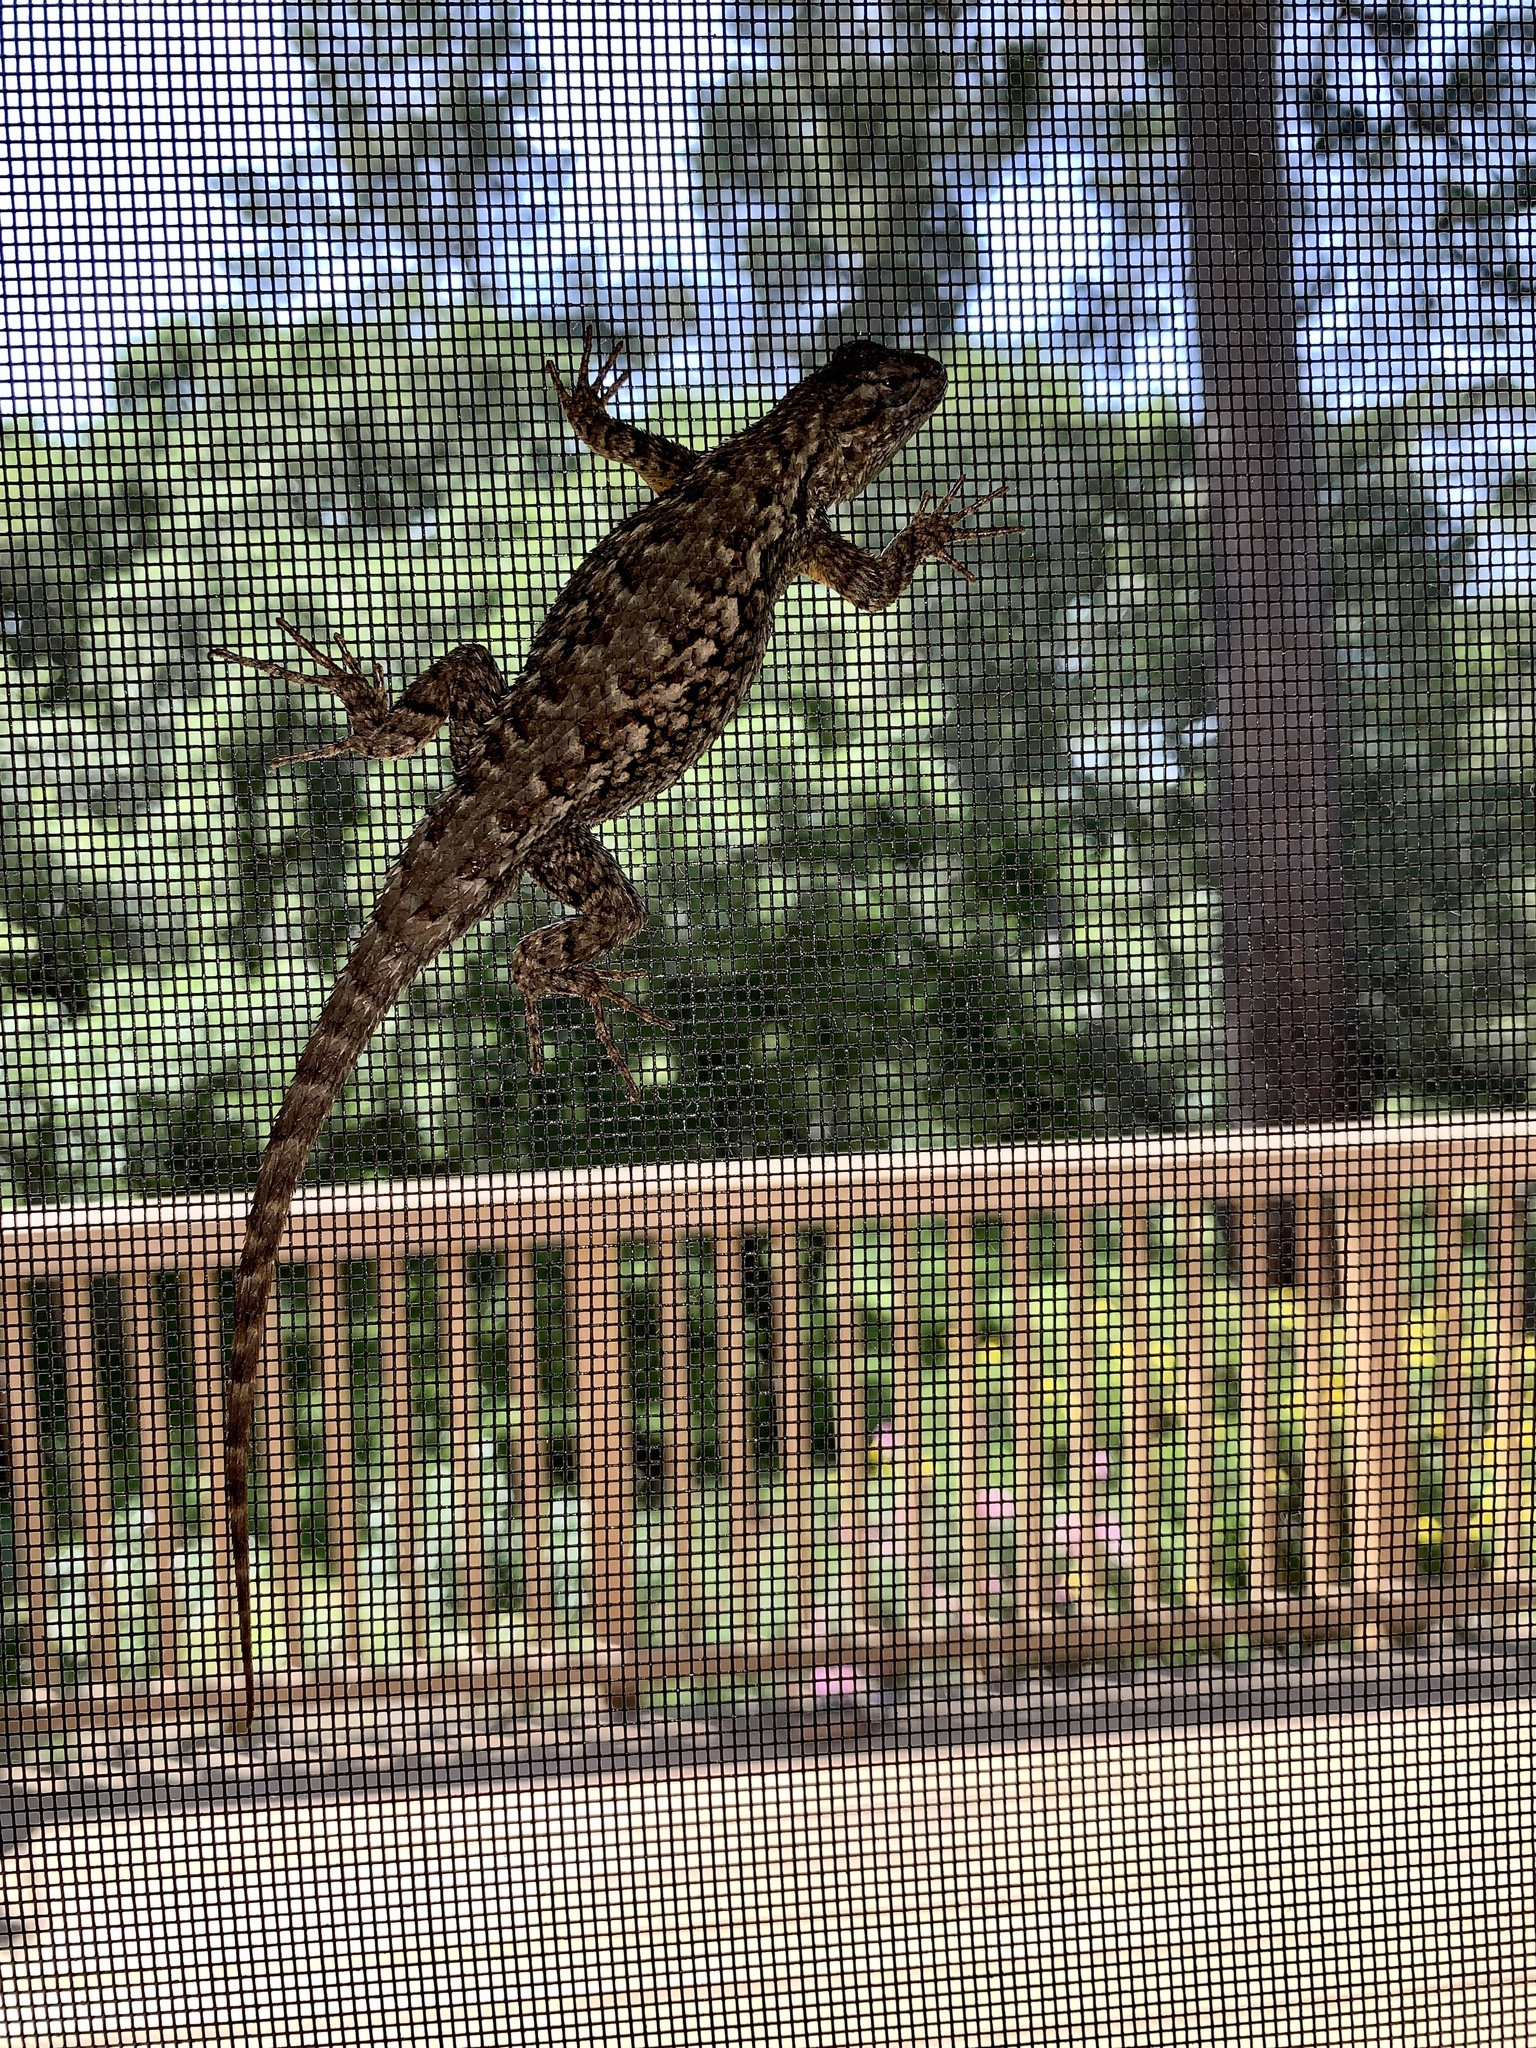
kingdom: Animalia
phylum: Chordata
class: Squamata
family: Phrynosomatidae
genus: Sceloporus
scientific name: Sceloporus occidentalis
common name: Western fence lizard
